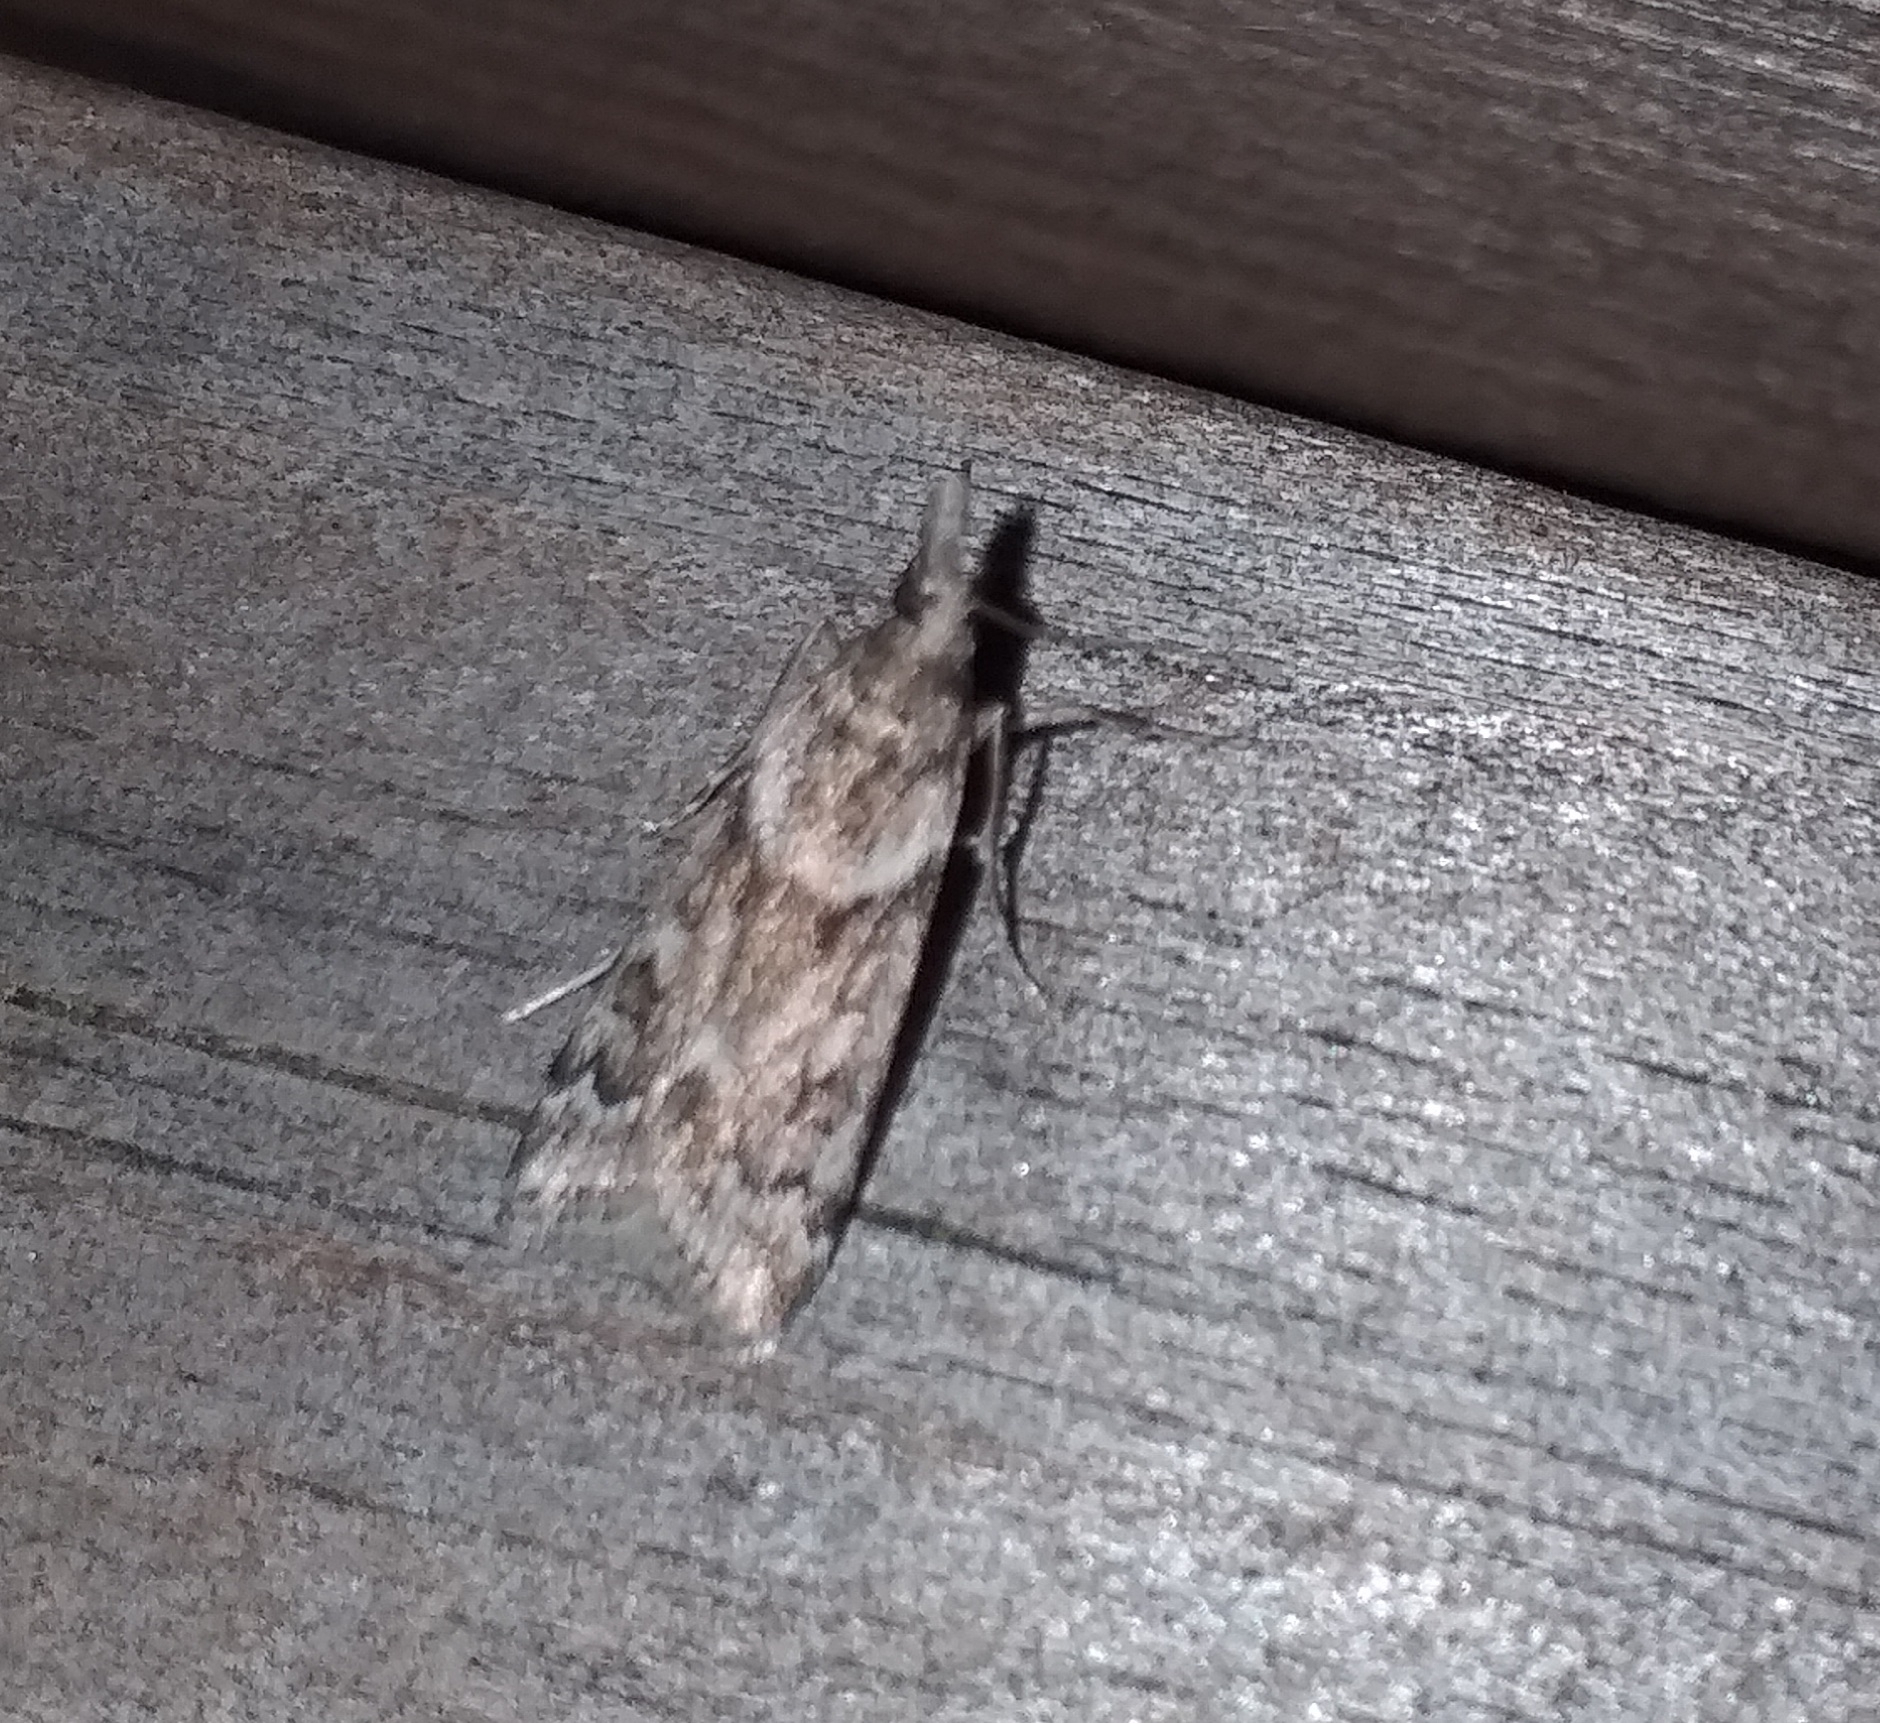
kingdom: Animalia
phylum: Arthropoda
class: Insecta
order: Lepidoptera
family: Crambidae
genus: Eudonia
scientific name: Eudonia angustea
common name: Narrow-winged grey
